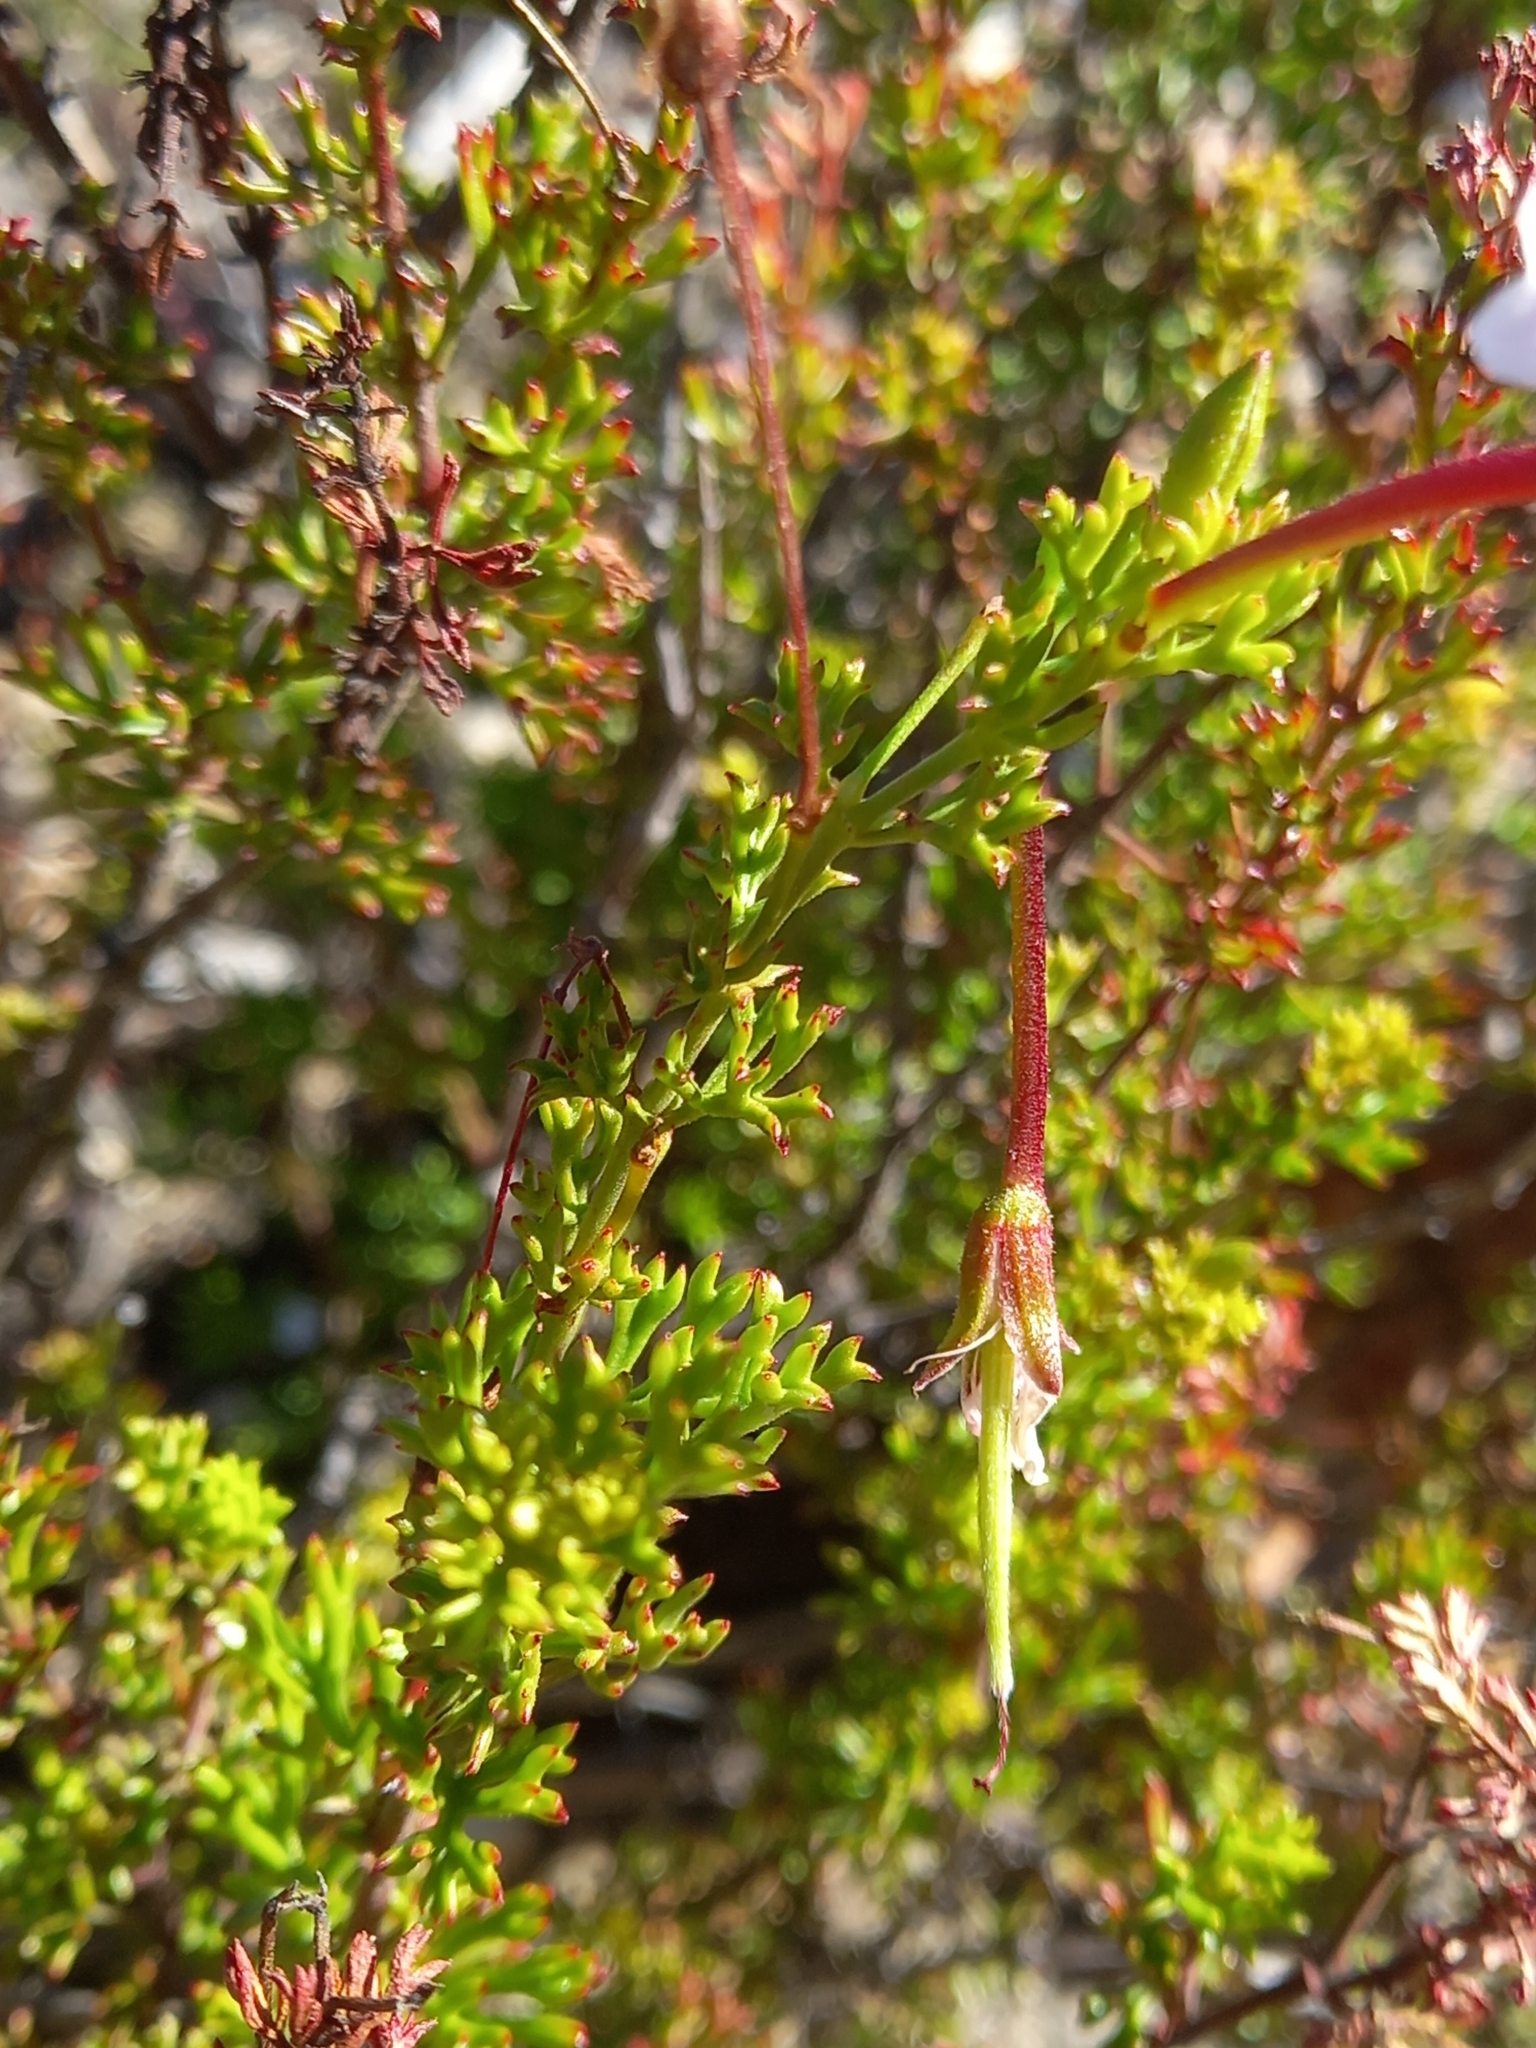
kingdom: Plantae
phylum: Tracheophyta
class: Magnoliopsida
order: Geraniales
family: Geraniaceae
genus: Pelargonium
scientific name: Pelargonium fruticosum
